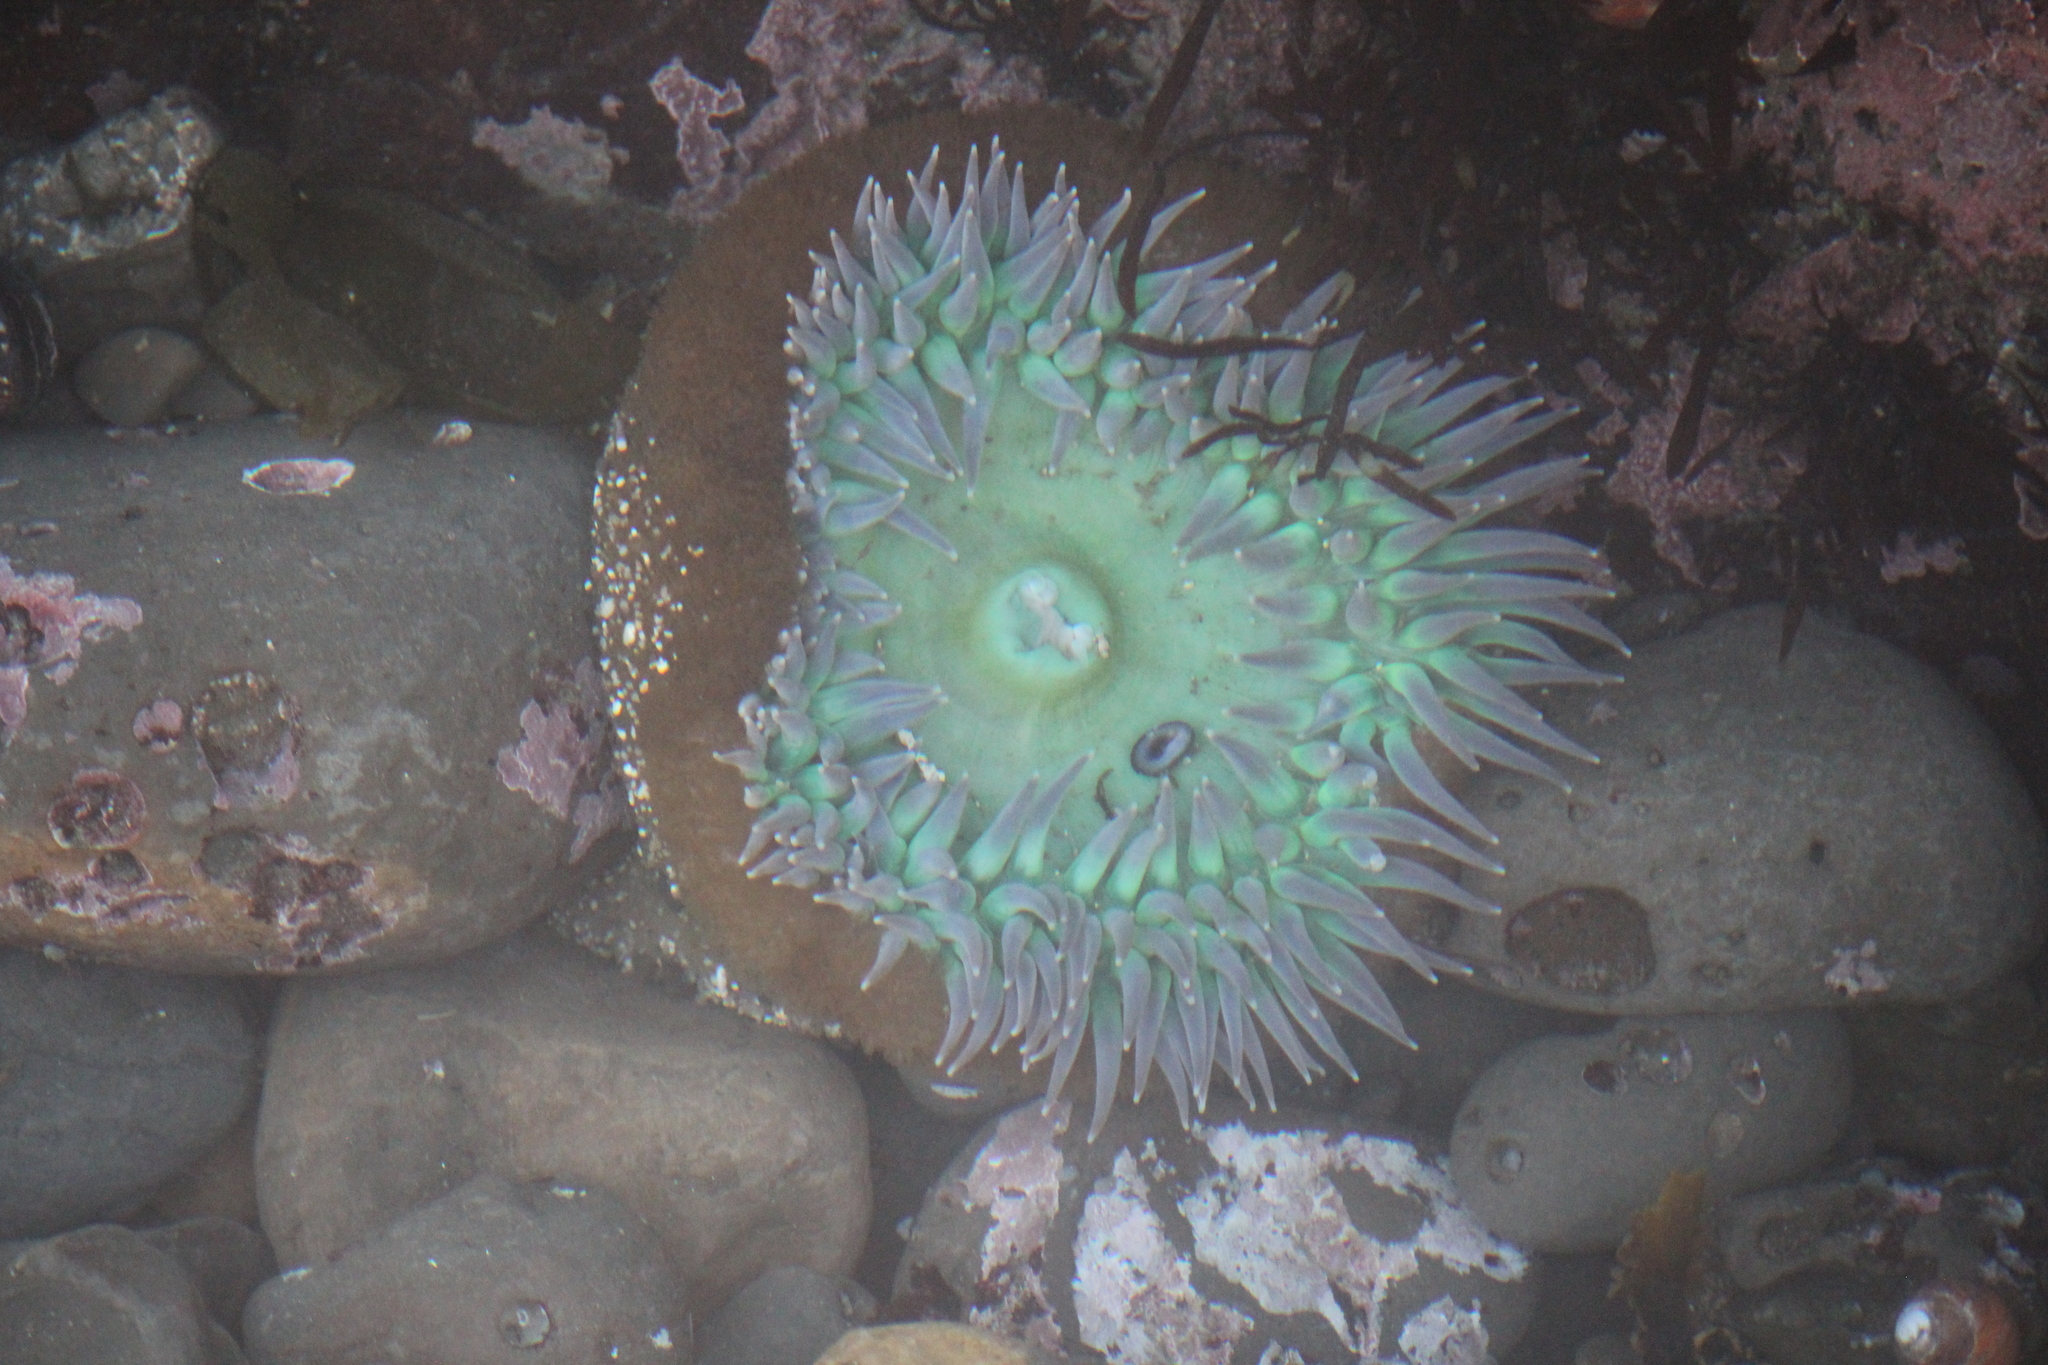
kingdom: Animalia
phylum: Cnidaria
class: Anthozoa
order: Actiniaria
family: Actiniidae
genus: Anthopleura
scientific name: Anthopleura xanthogrammica
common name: Giant green anemone
